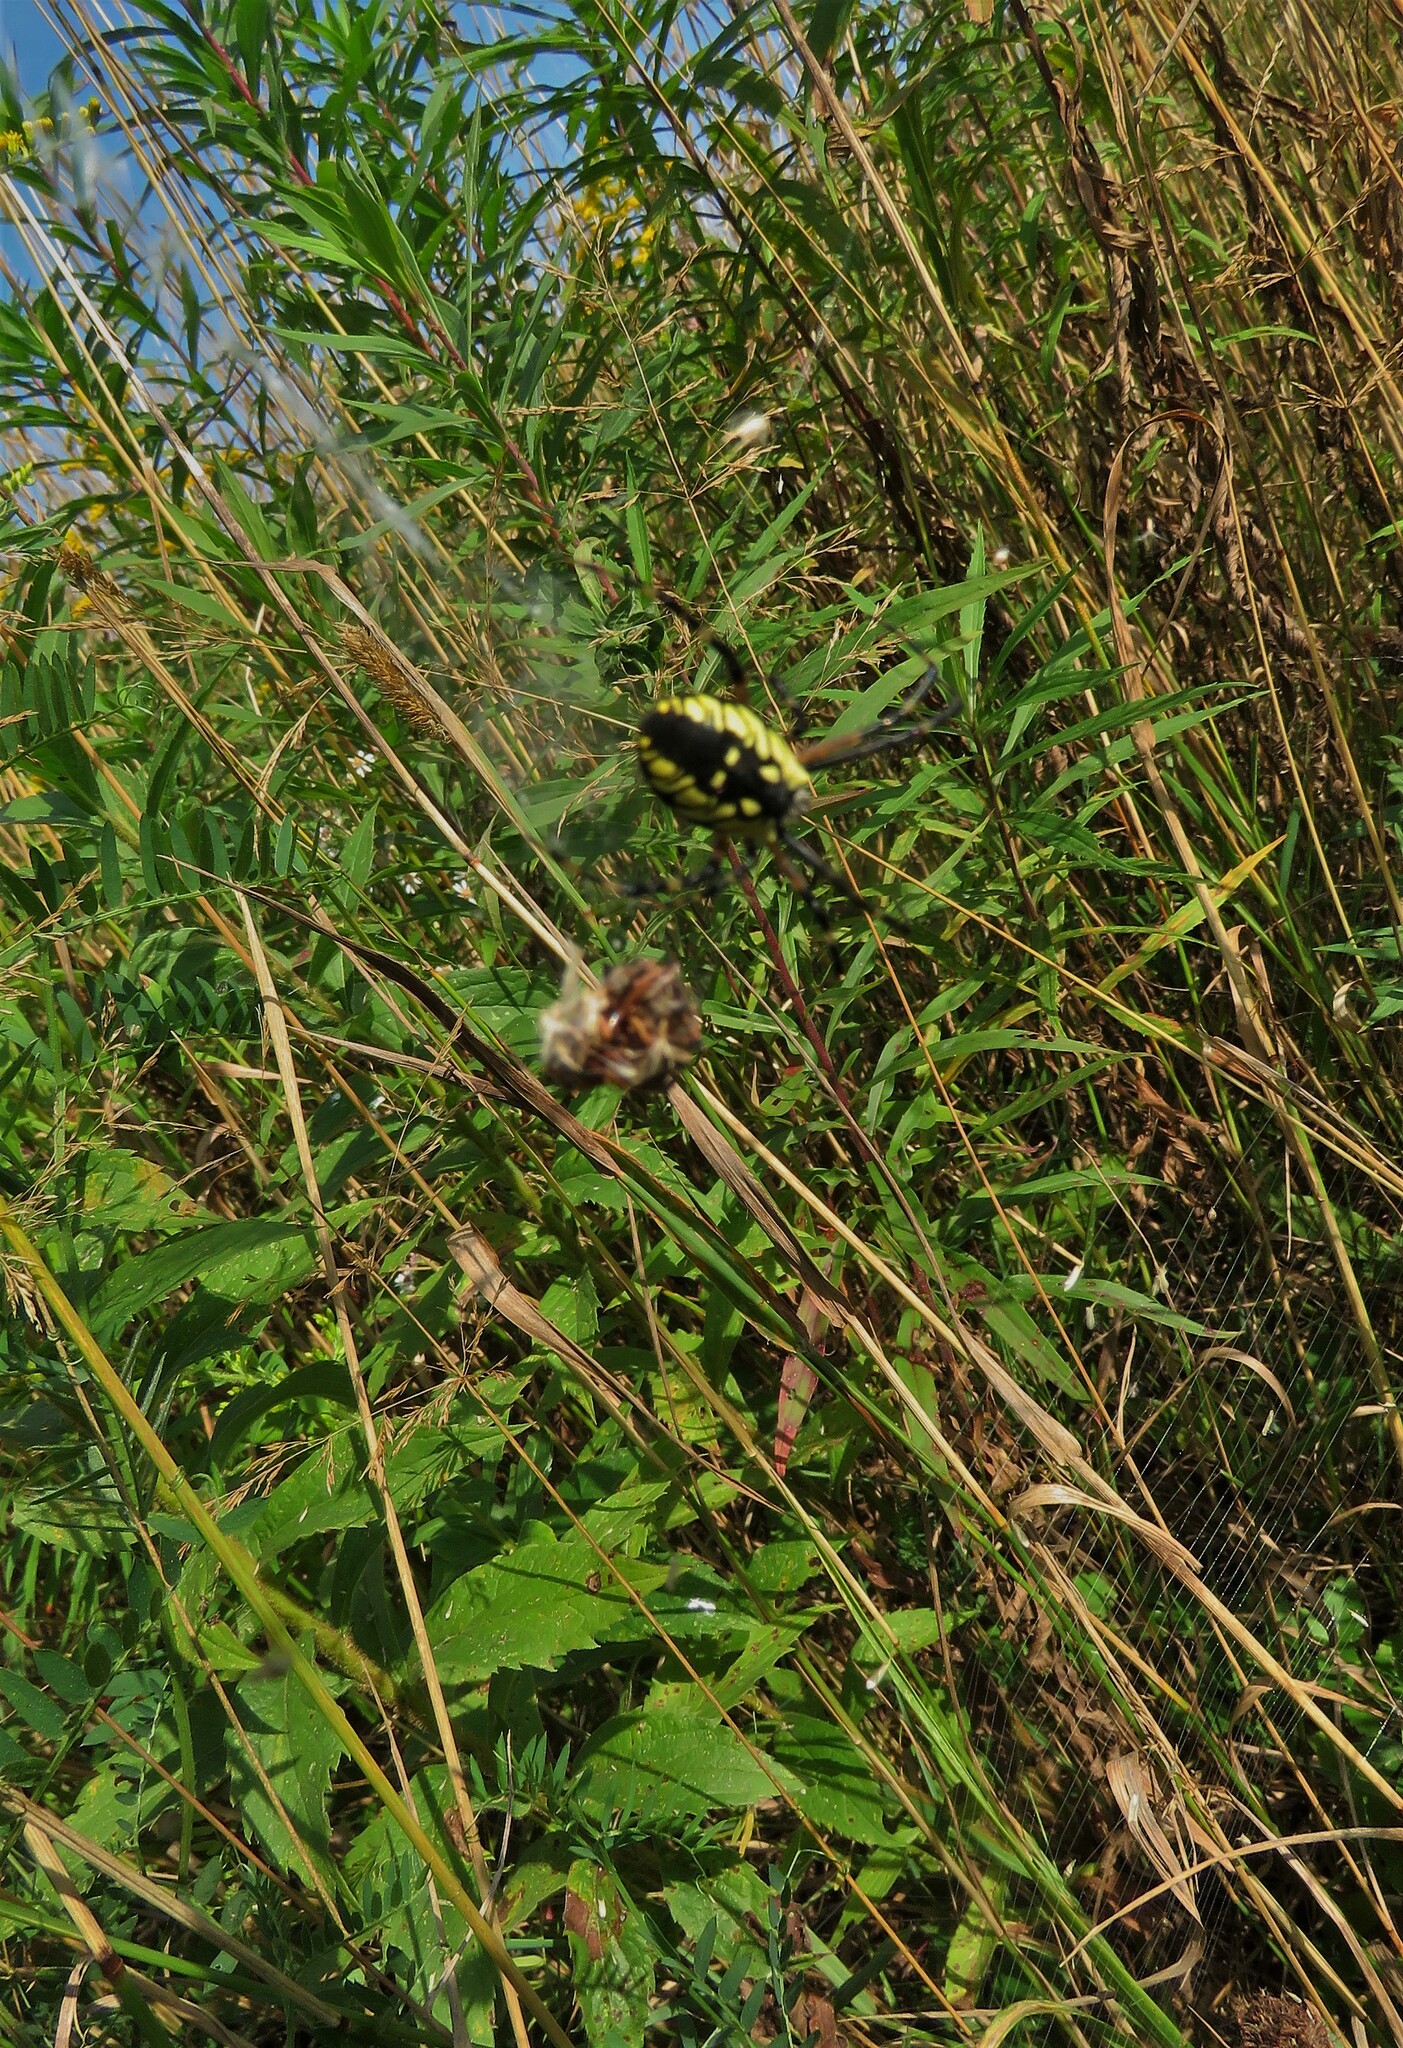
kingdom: Animalia
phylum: Arthropoda
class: Arachnida
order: Araneae
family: Araneidae
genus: Argiope
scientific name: Argiope aurantia
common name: Orb weavers
